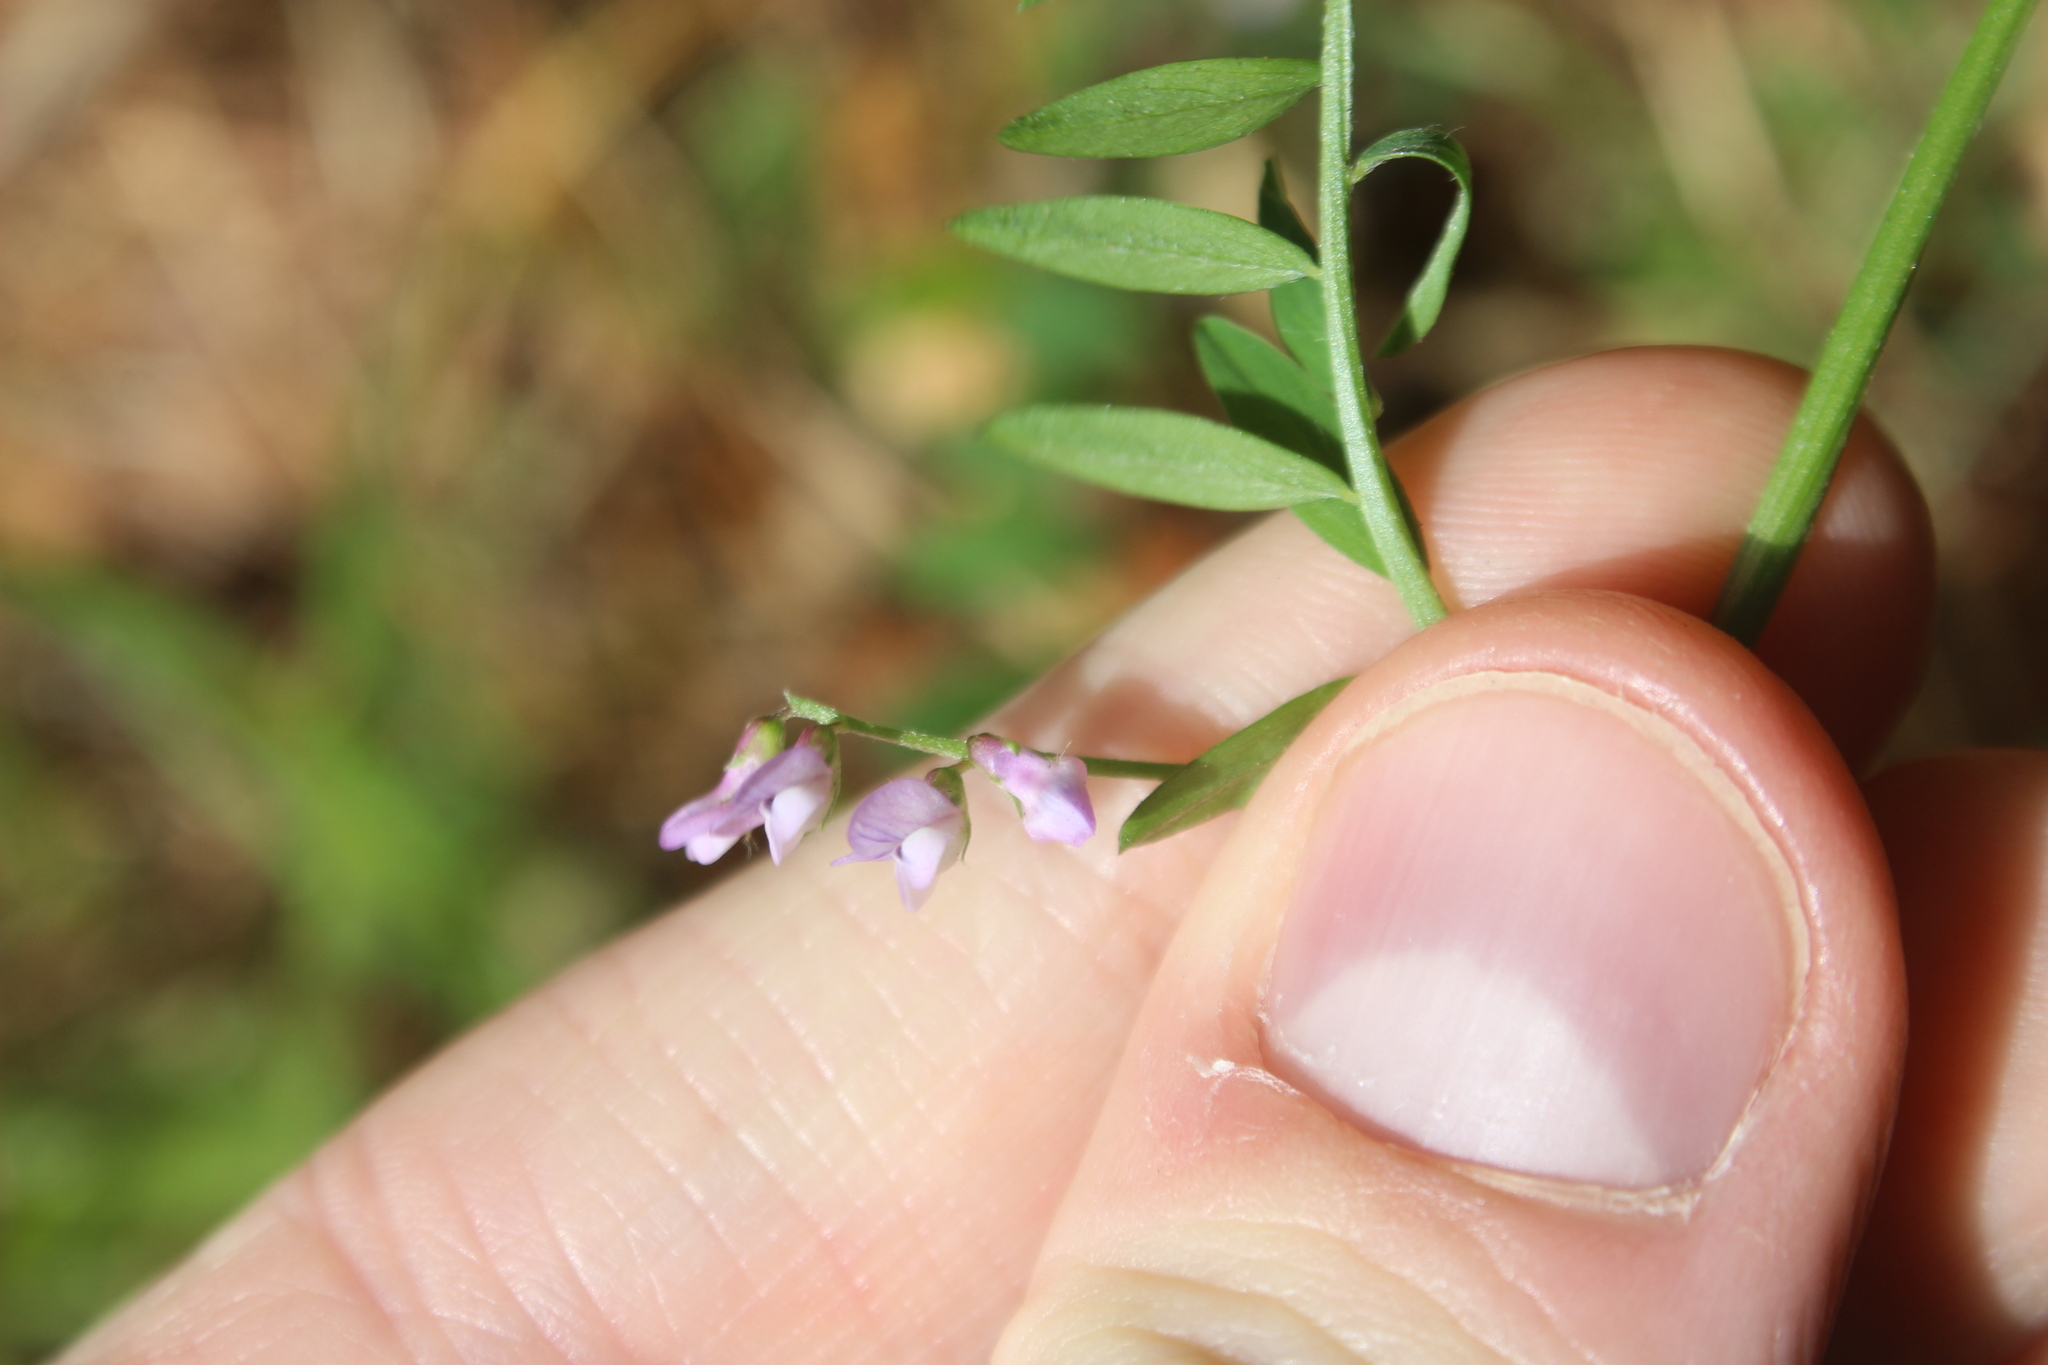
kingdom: Plantae
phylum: Tracheophyta
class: Magnoliopsida
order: Fabales
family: Fabaceae
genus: Vicia
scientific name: Vicia disperma
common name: European vetch
